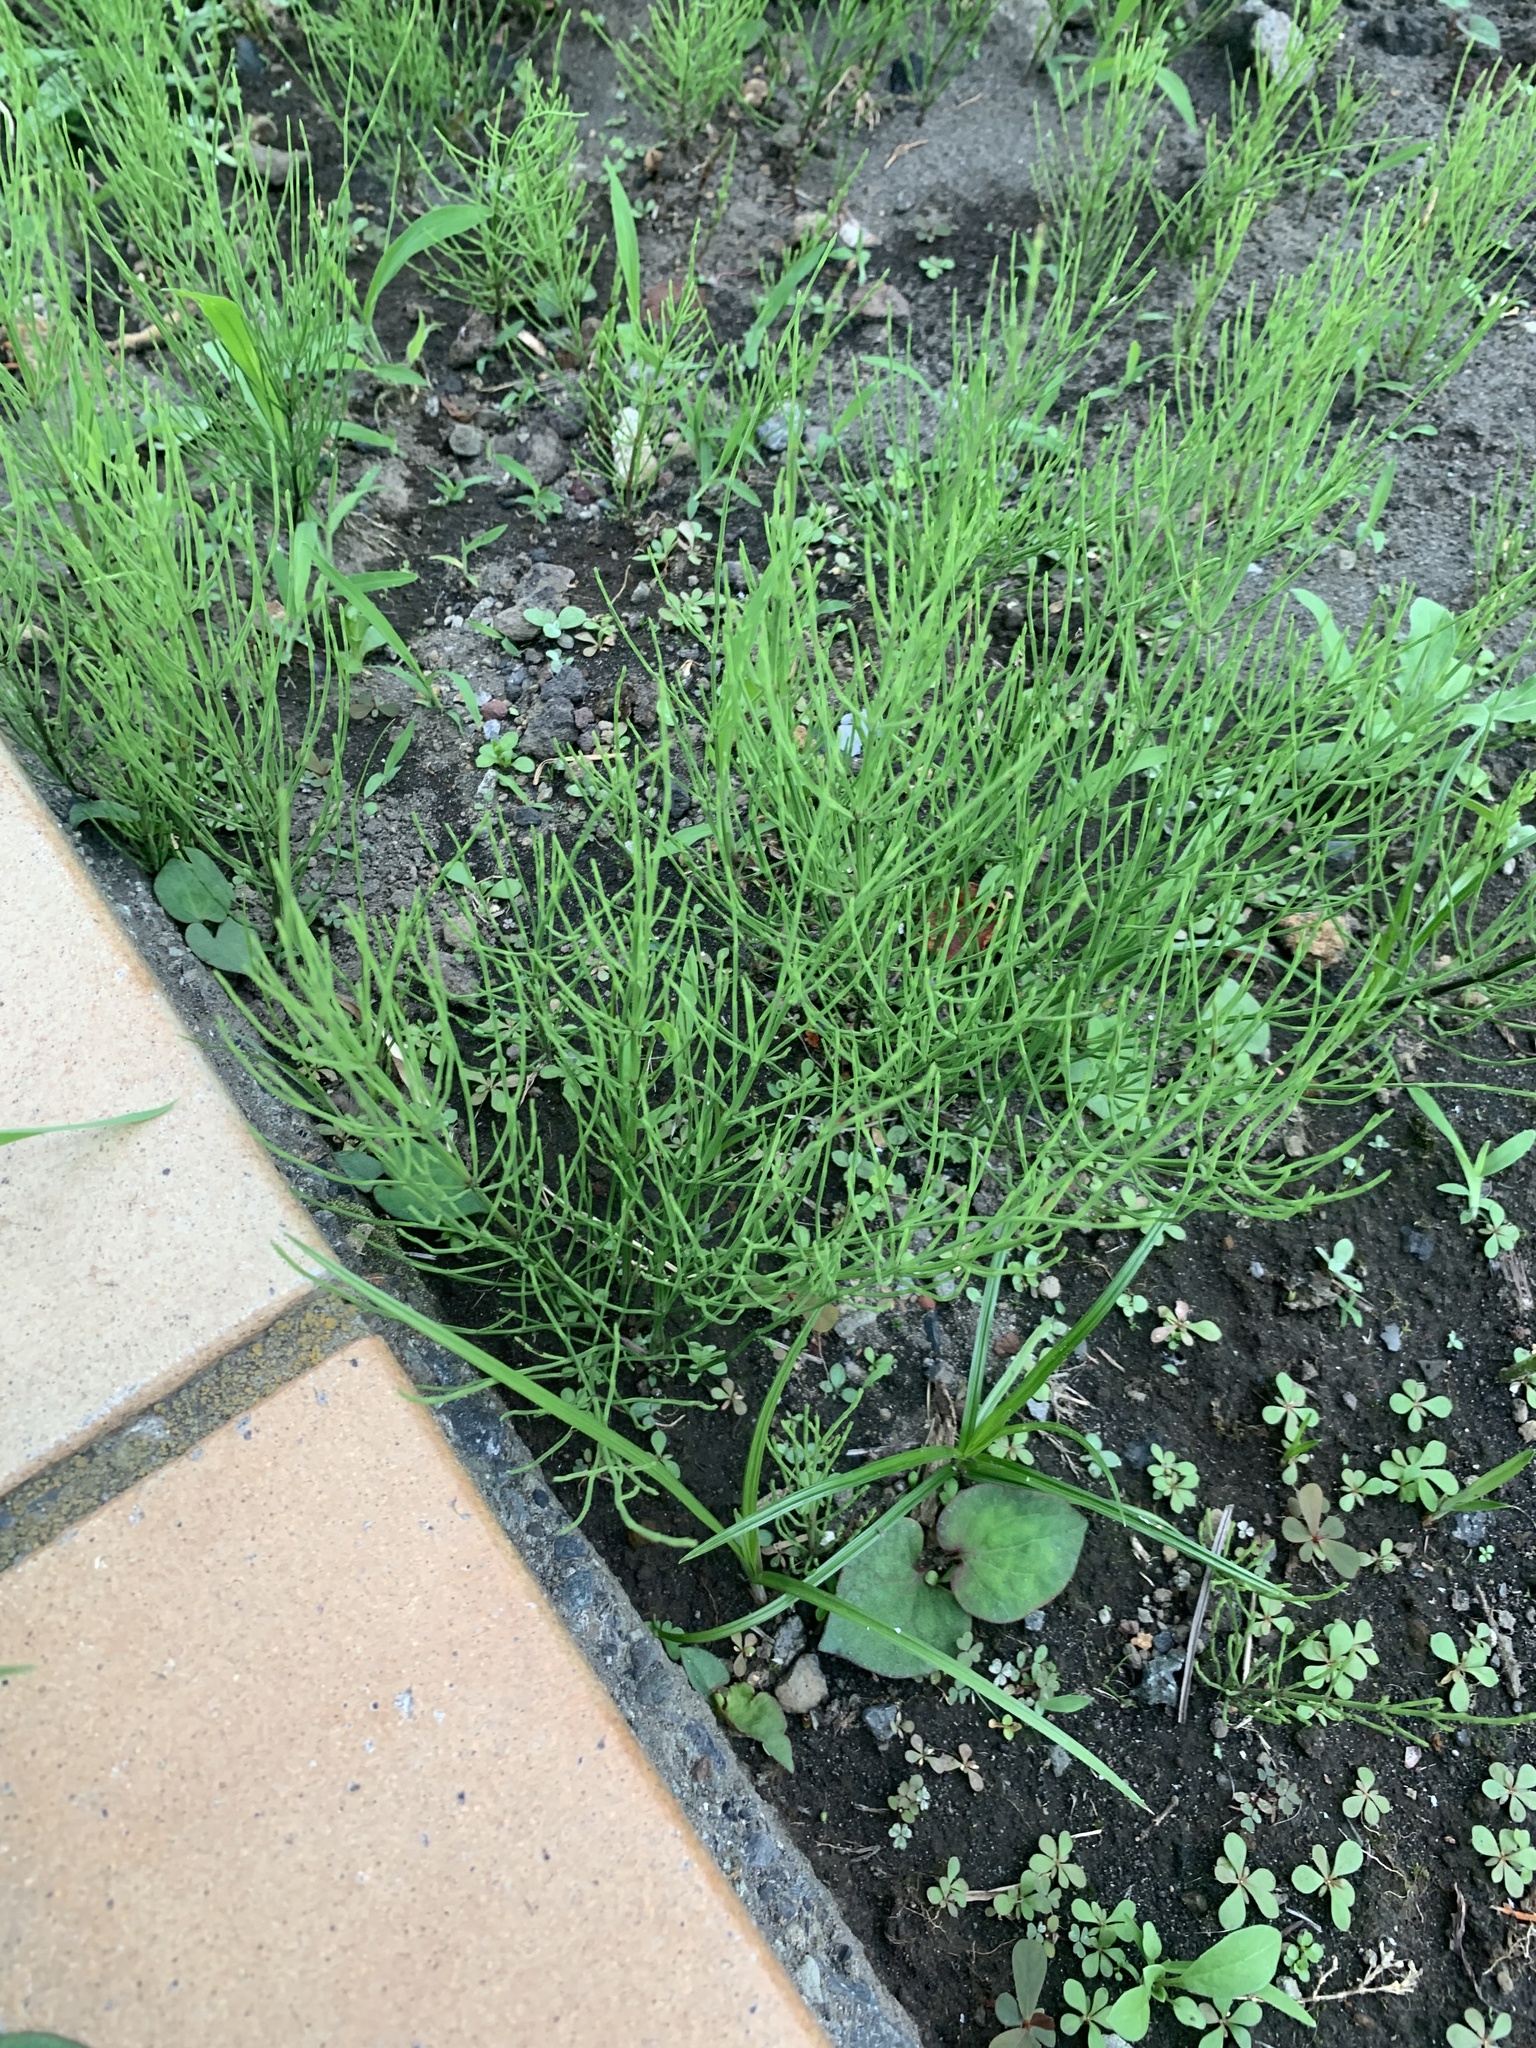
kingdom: Plantae
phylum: Tracheophyta
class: Polypodiopsida
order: Equisetales
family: Equisetaceae
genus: Equisetum
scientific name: Equisetum arvense
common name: Field horsetail
